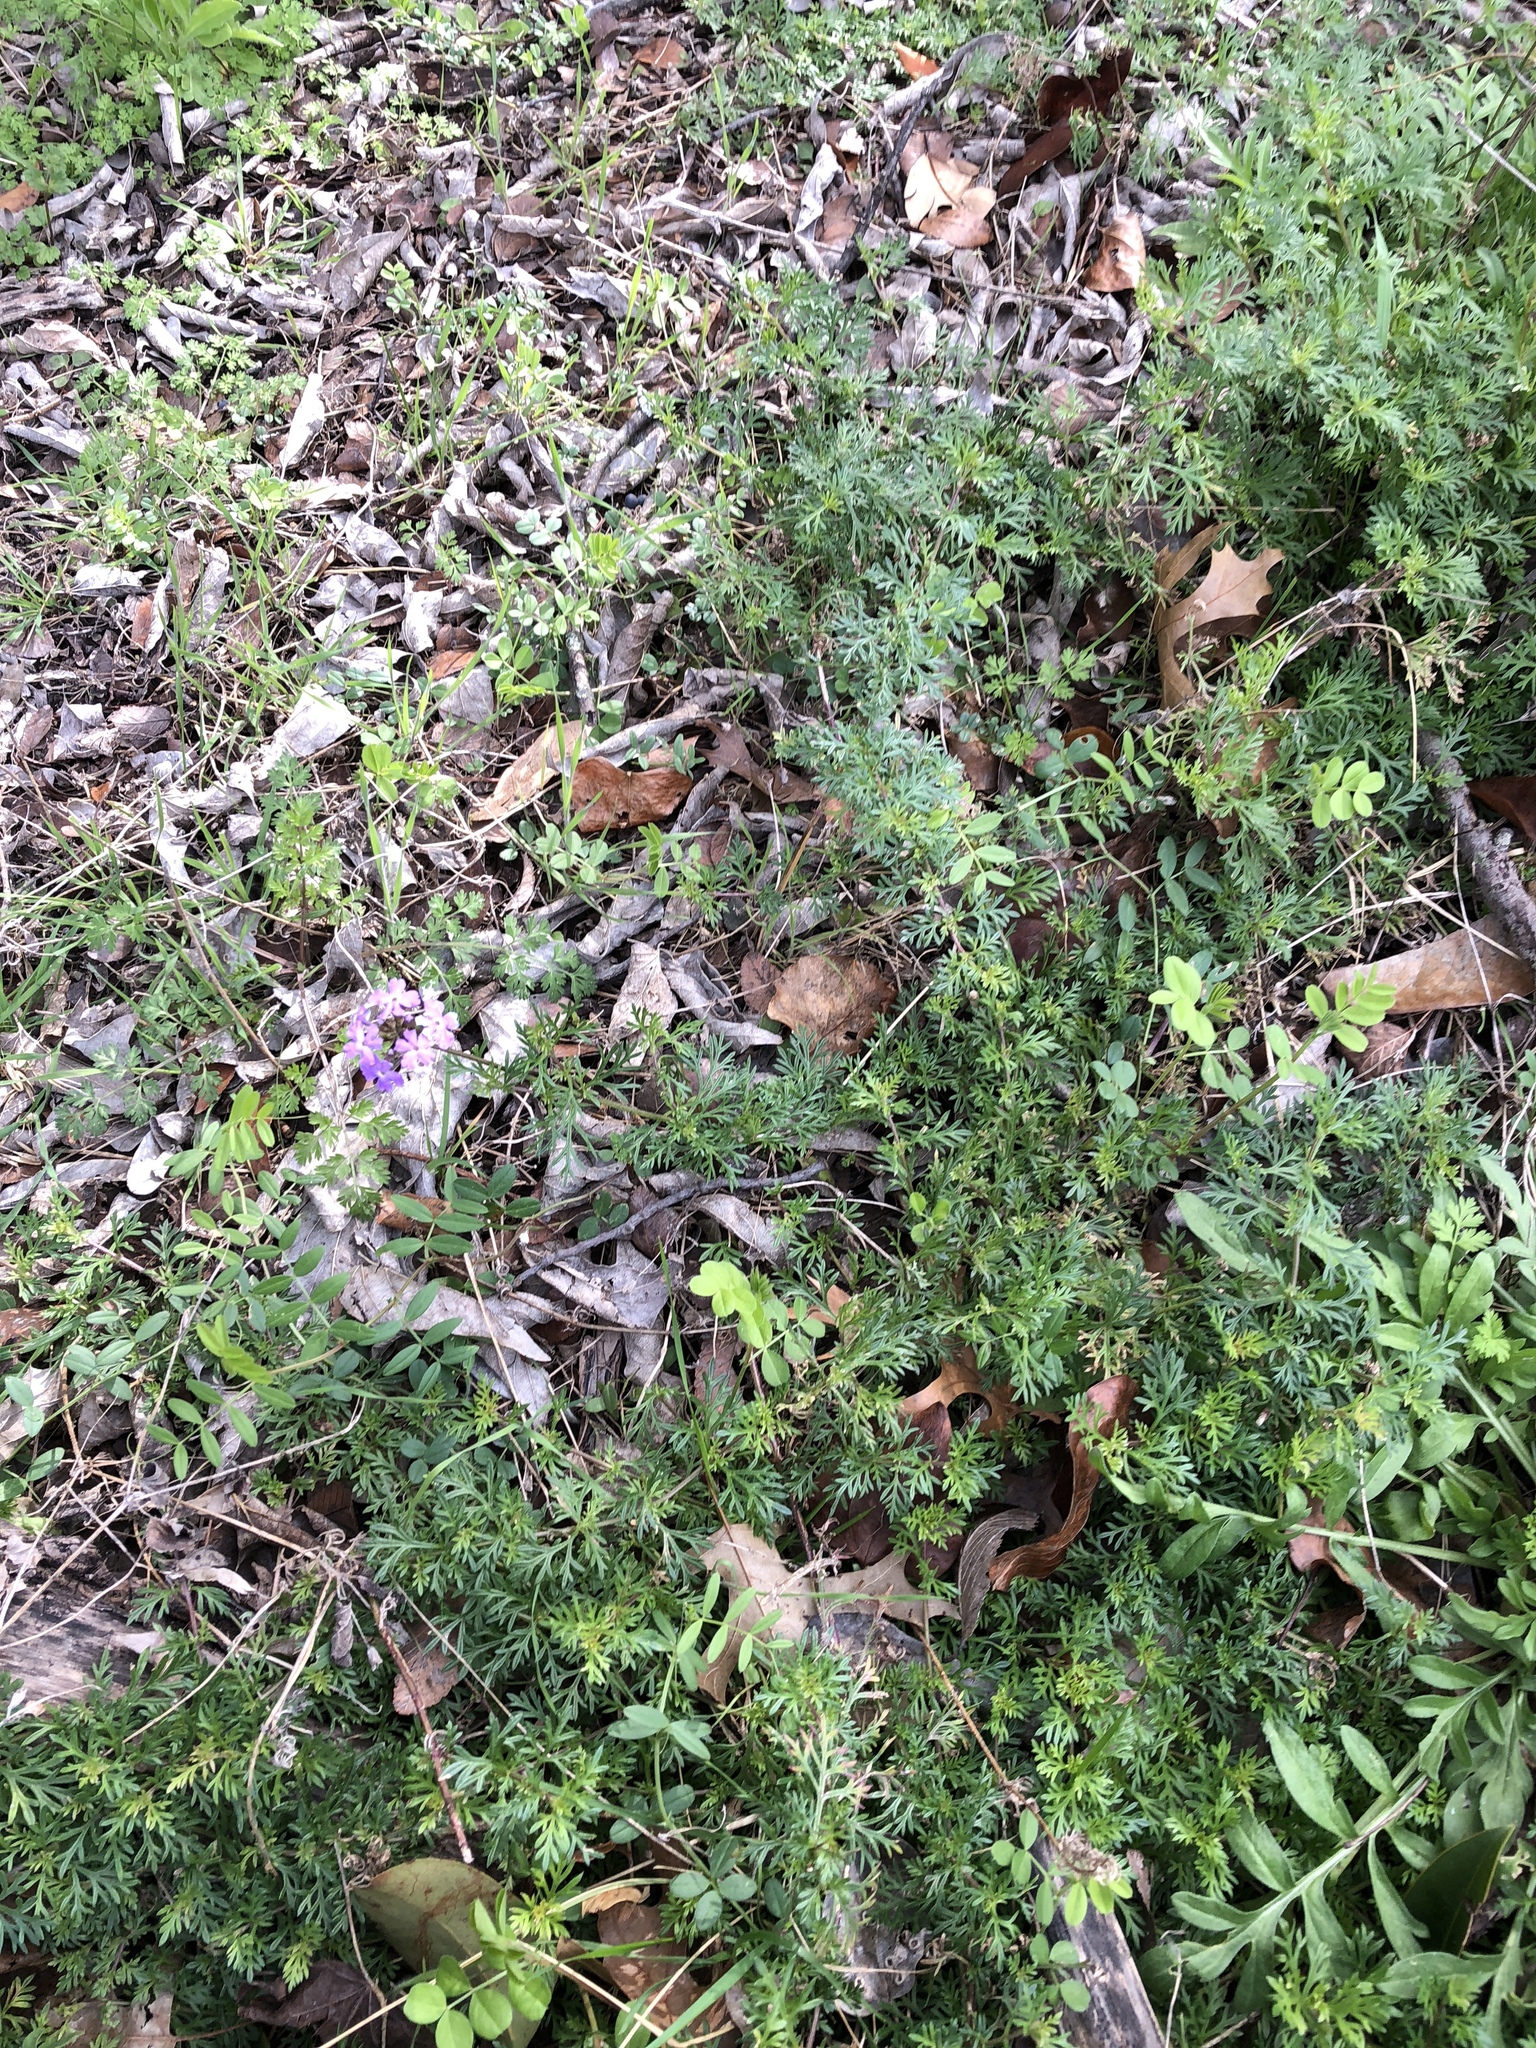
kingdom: Plantae
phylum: Tracheophyta
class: Magnoliopsida
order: Lamiales
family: Verbenaceae
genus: Verbena
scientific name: Verbena bipinnatifida
